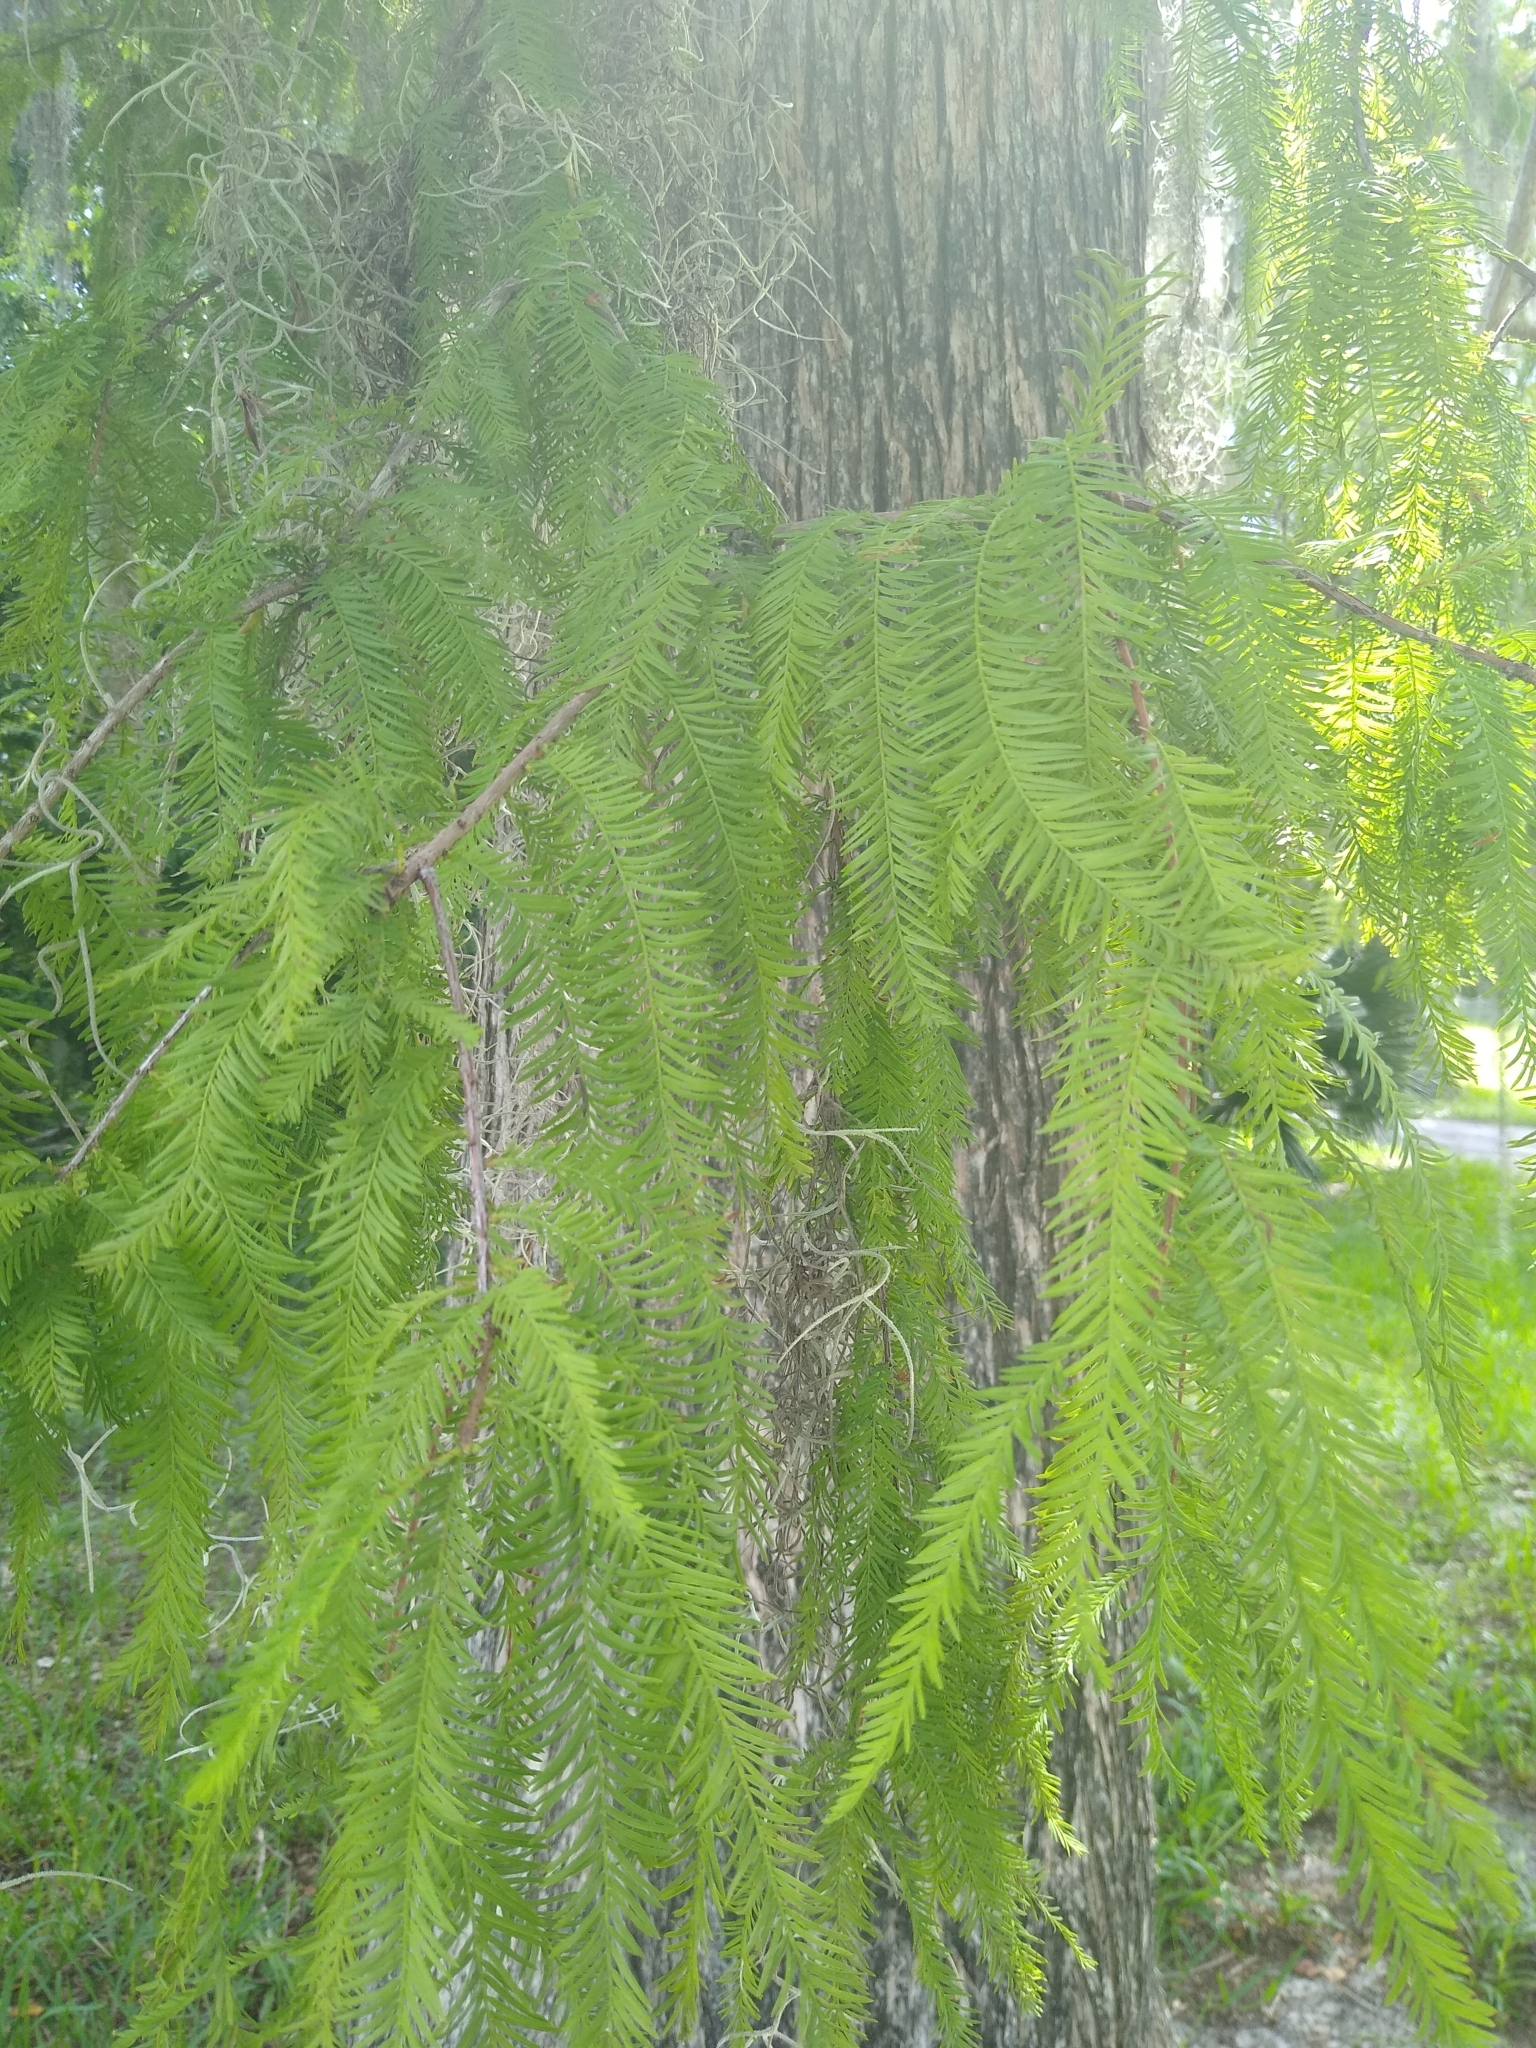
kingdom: Plantae
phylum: Tracheophyta
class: Pinopsida
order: Pinales
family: Cupressaceae
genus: Taxodium
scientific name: Taxodium distichum
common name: Bald cypress
